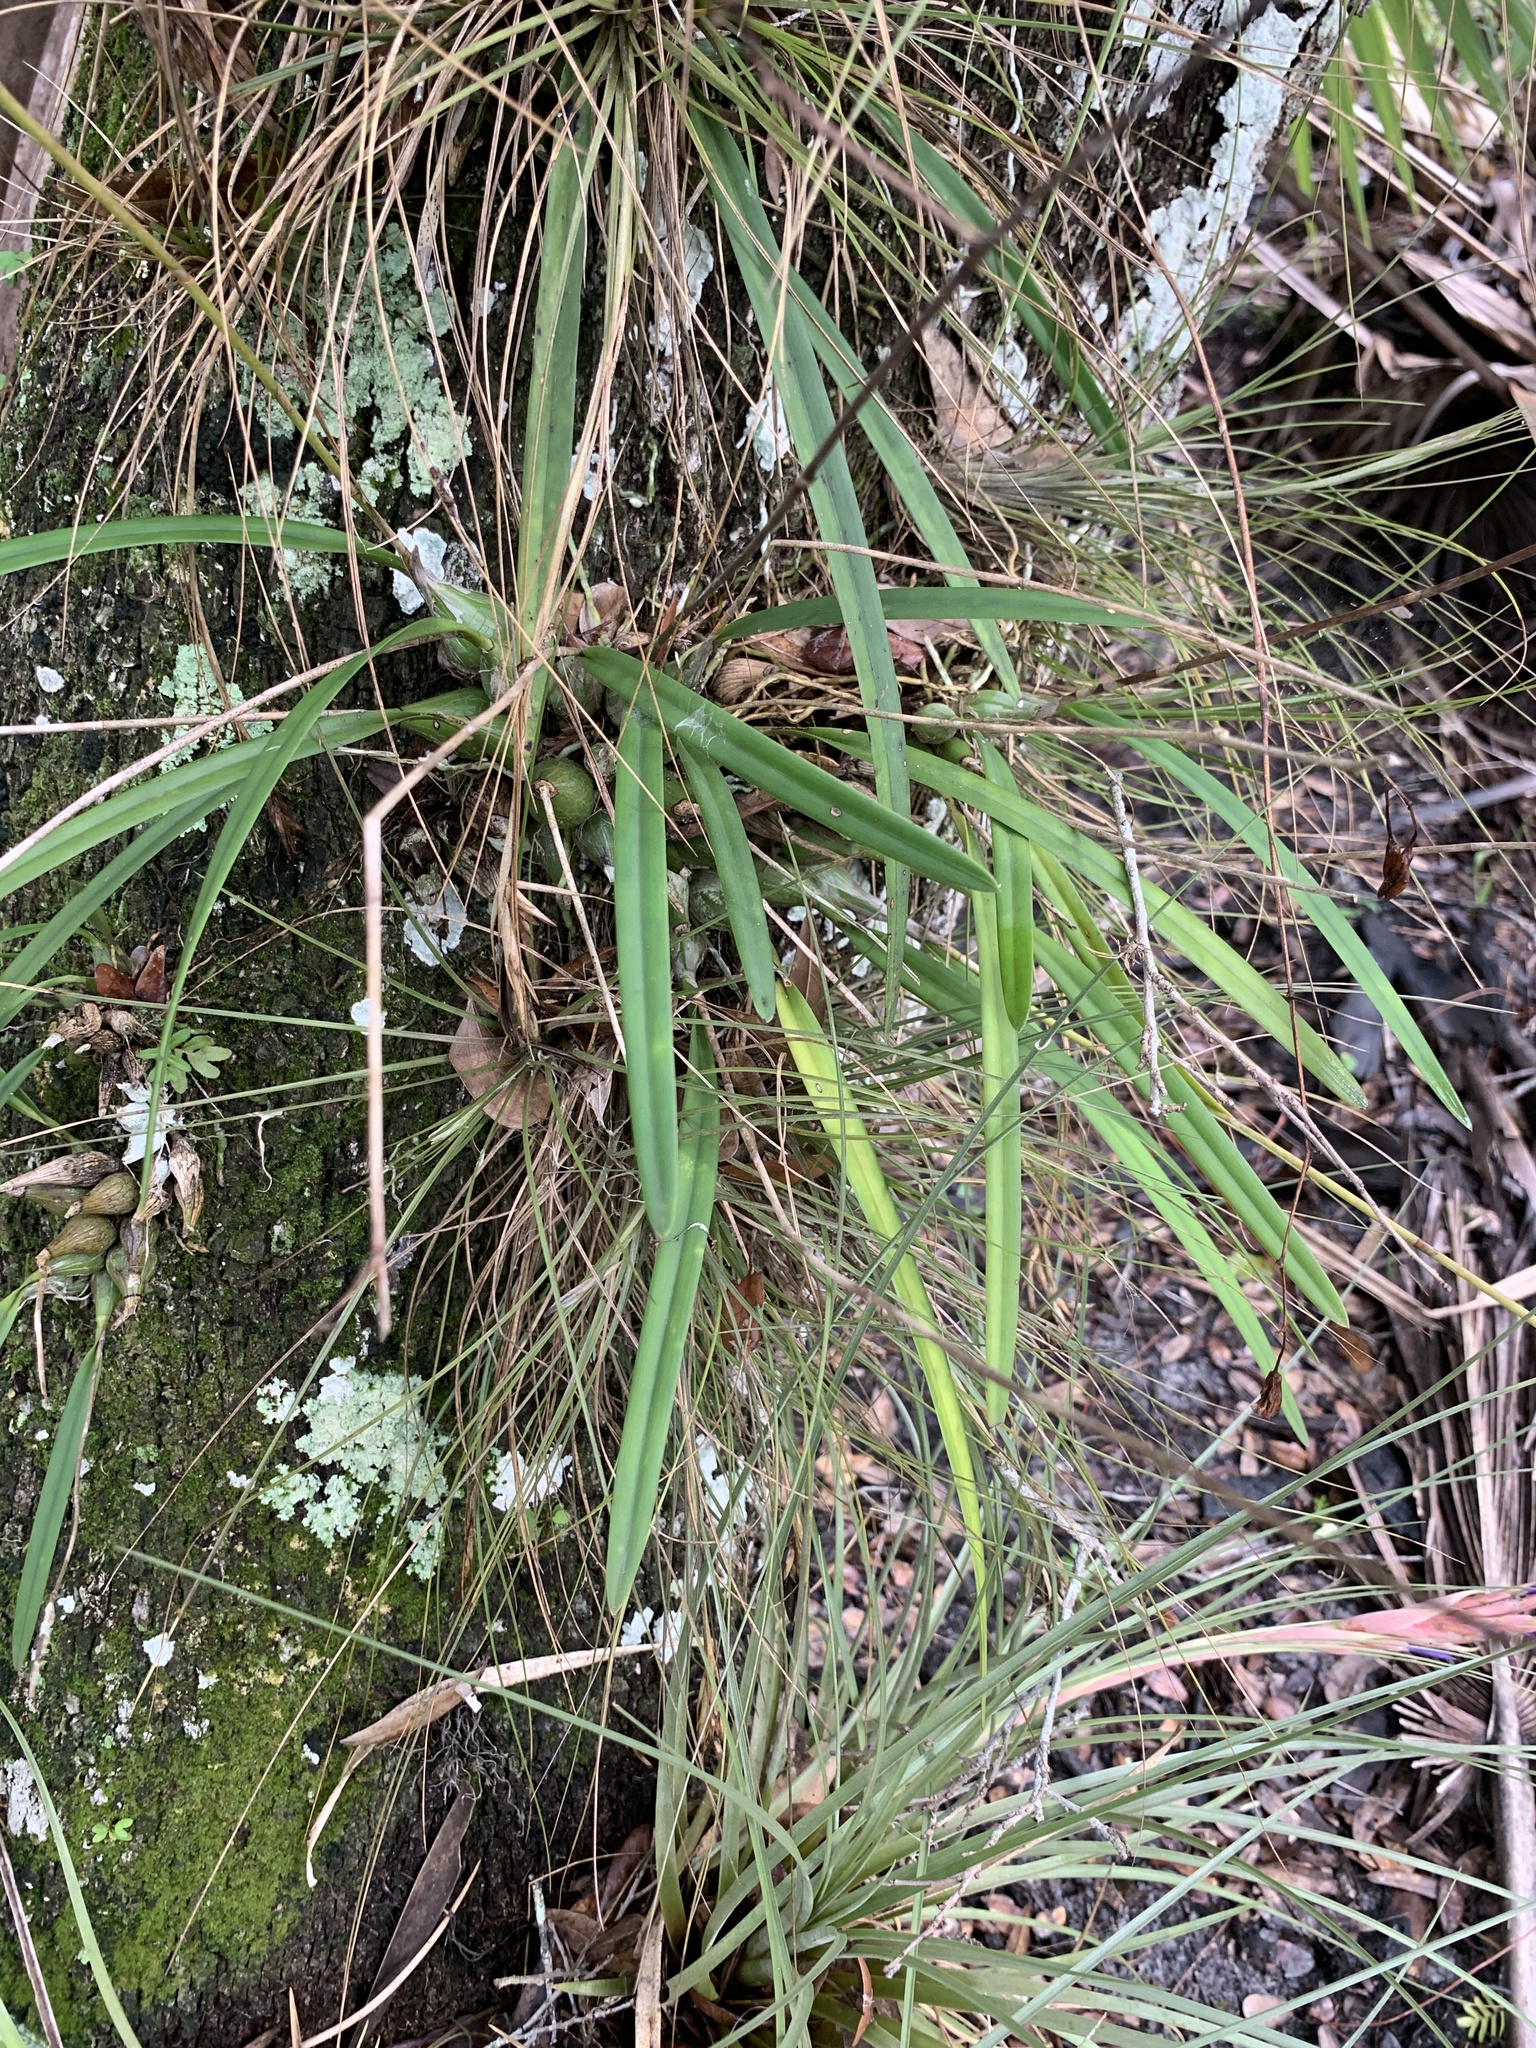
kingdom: Plantae
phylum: Tracheophyta
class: Liliopsida
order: Asparagales
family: Orchidaceae
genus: Encyclia
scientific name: Encyclia tampensis
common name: Florida butterfly orchid
